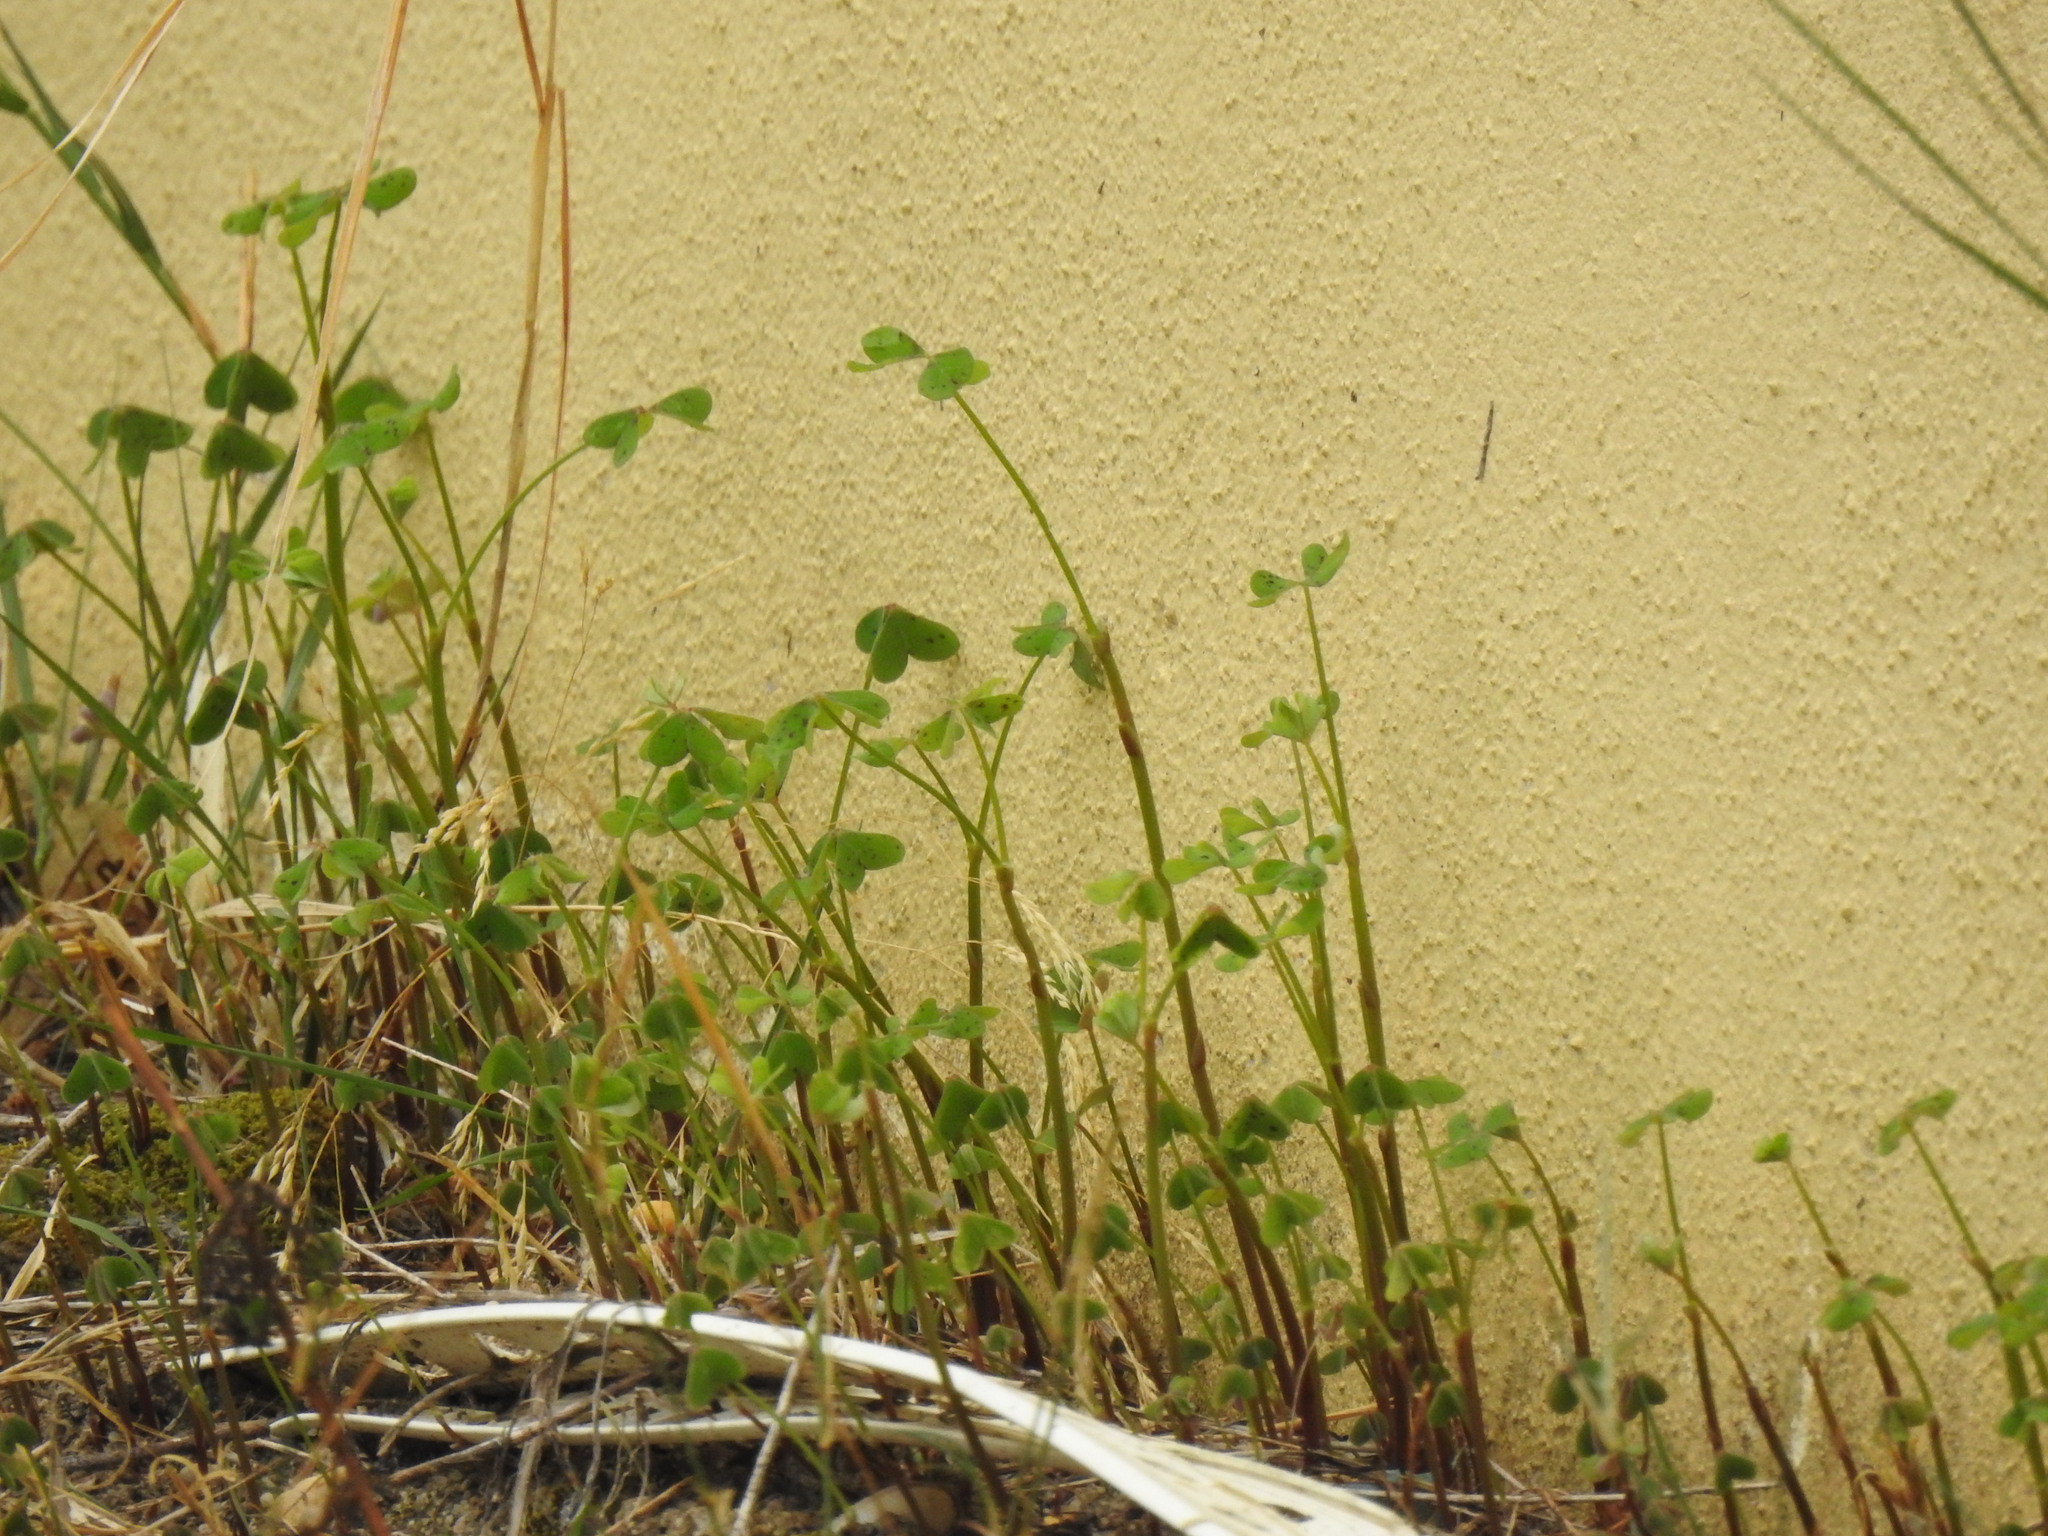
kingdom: Plantae
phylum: Tracheophyta
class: Magnoliopsida
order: Oxalidales
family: Oxalidaceae
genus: Oxalis
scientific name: Oxalis pes-caprae
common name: Bermuda-buttercup
